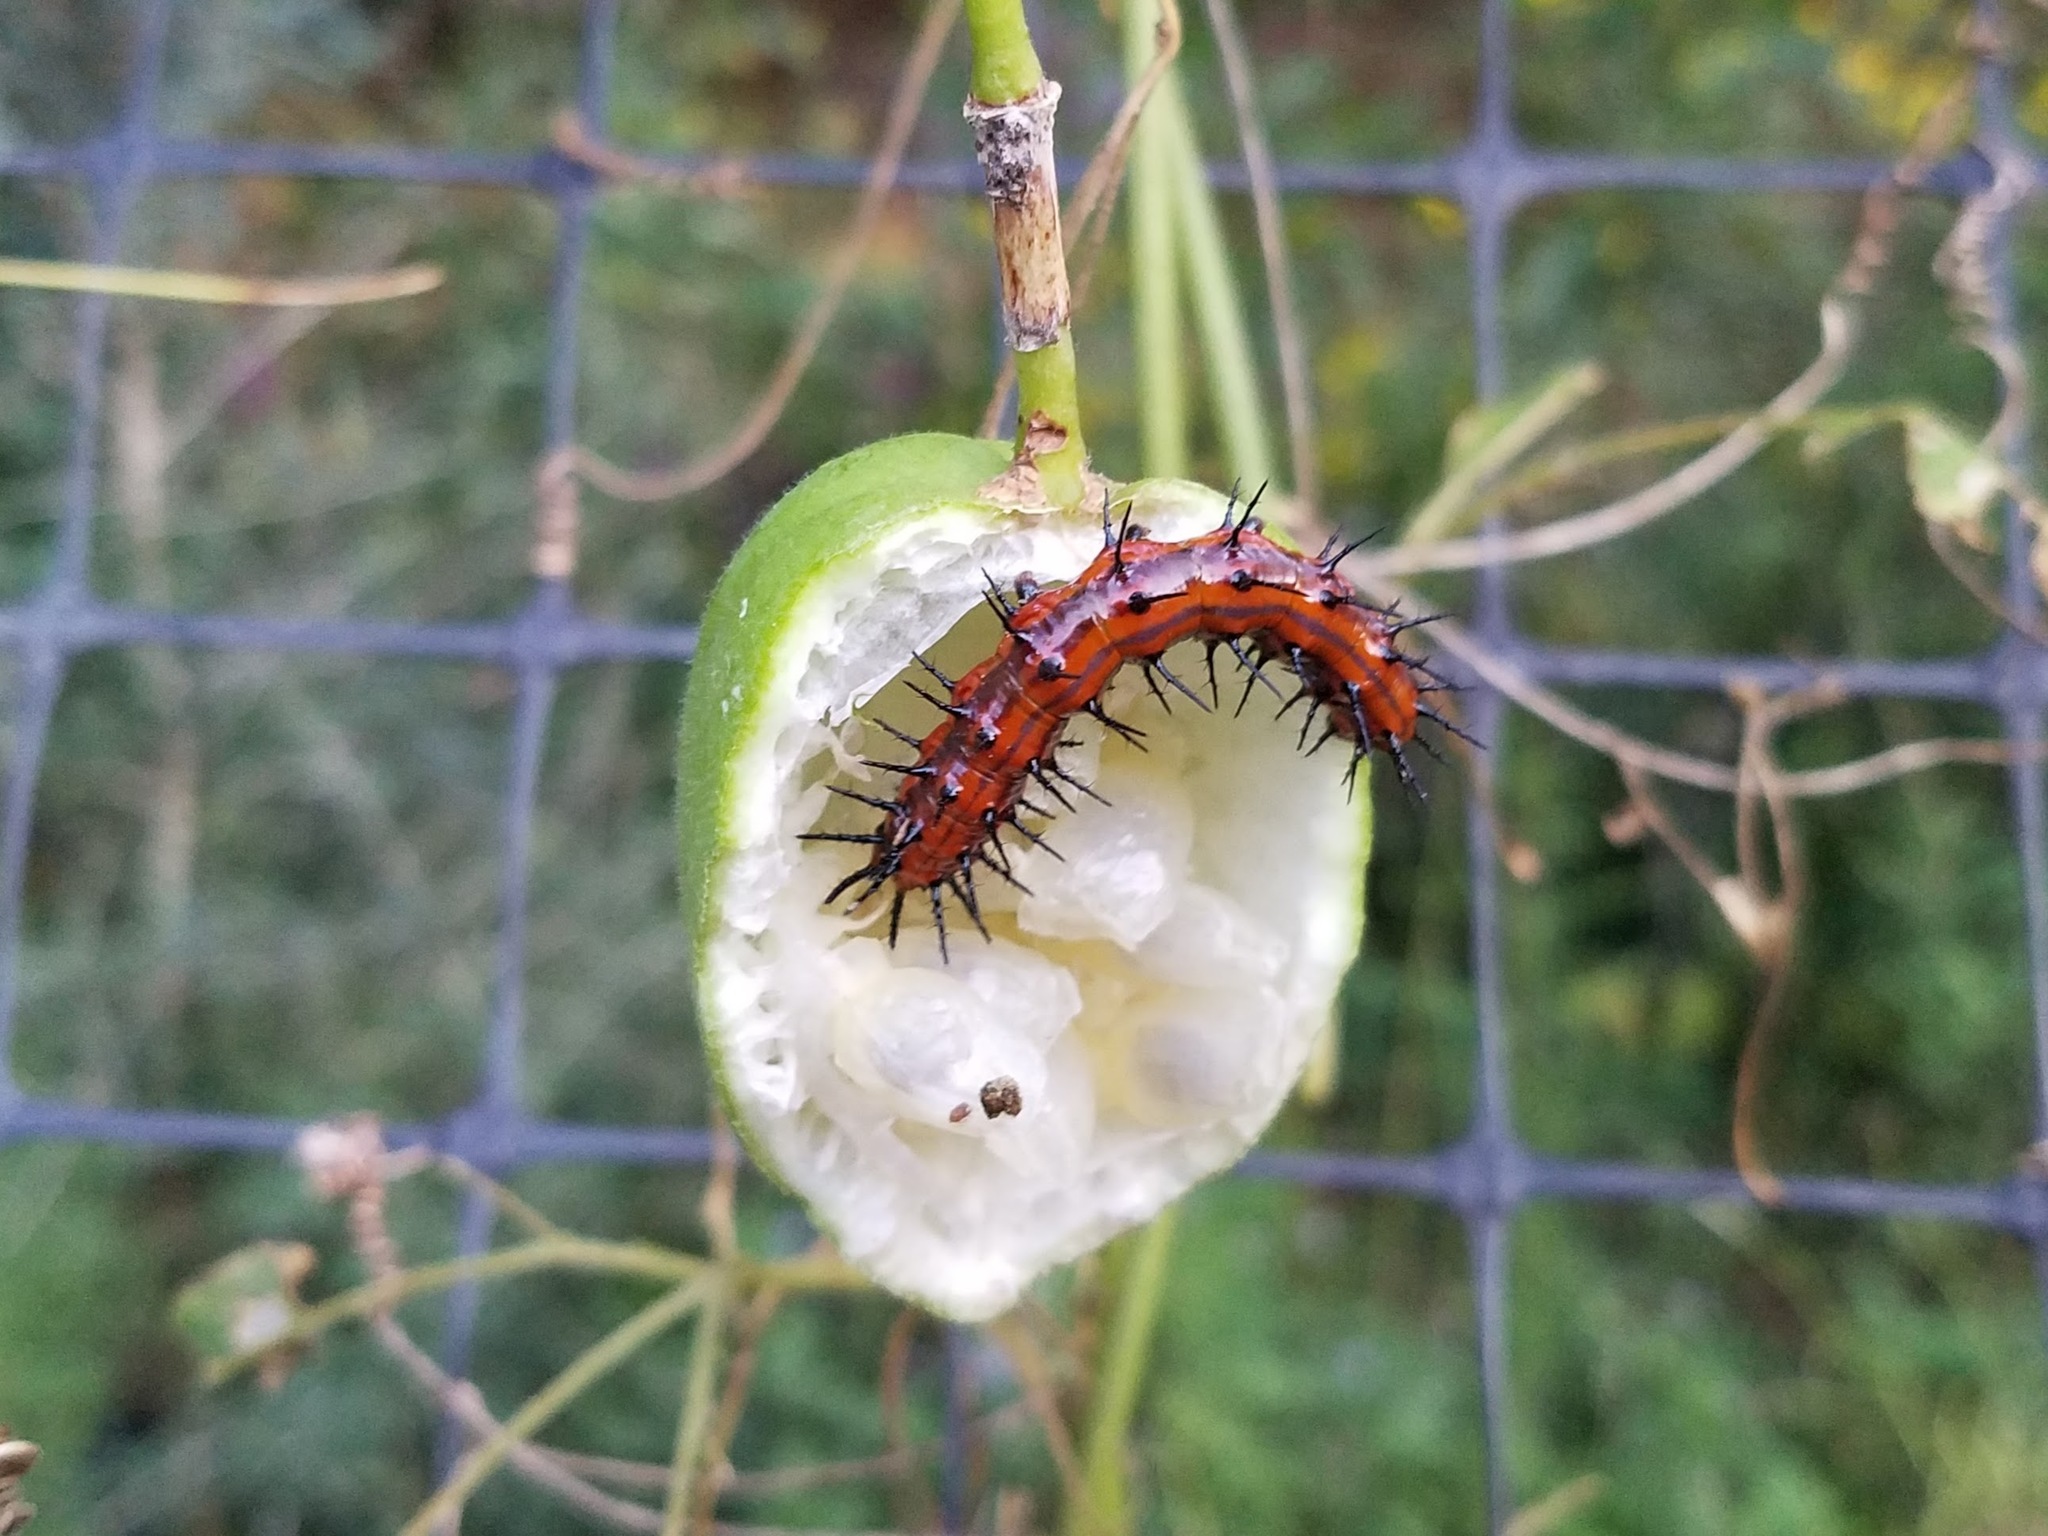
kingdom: Animalia
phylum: Arthropoda
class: Insecta
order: Lepidoptera
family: Nymphalidae
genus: Dione
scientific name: Dione vanillae
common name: Gulf fritillary
